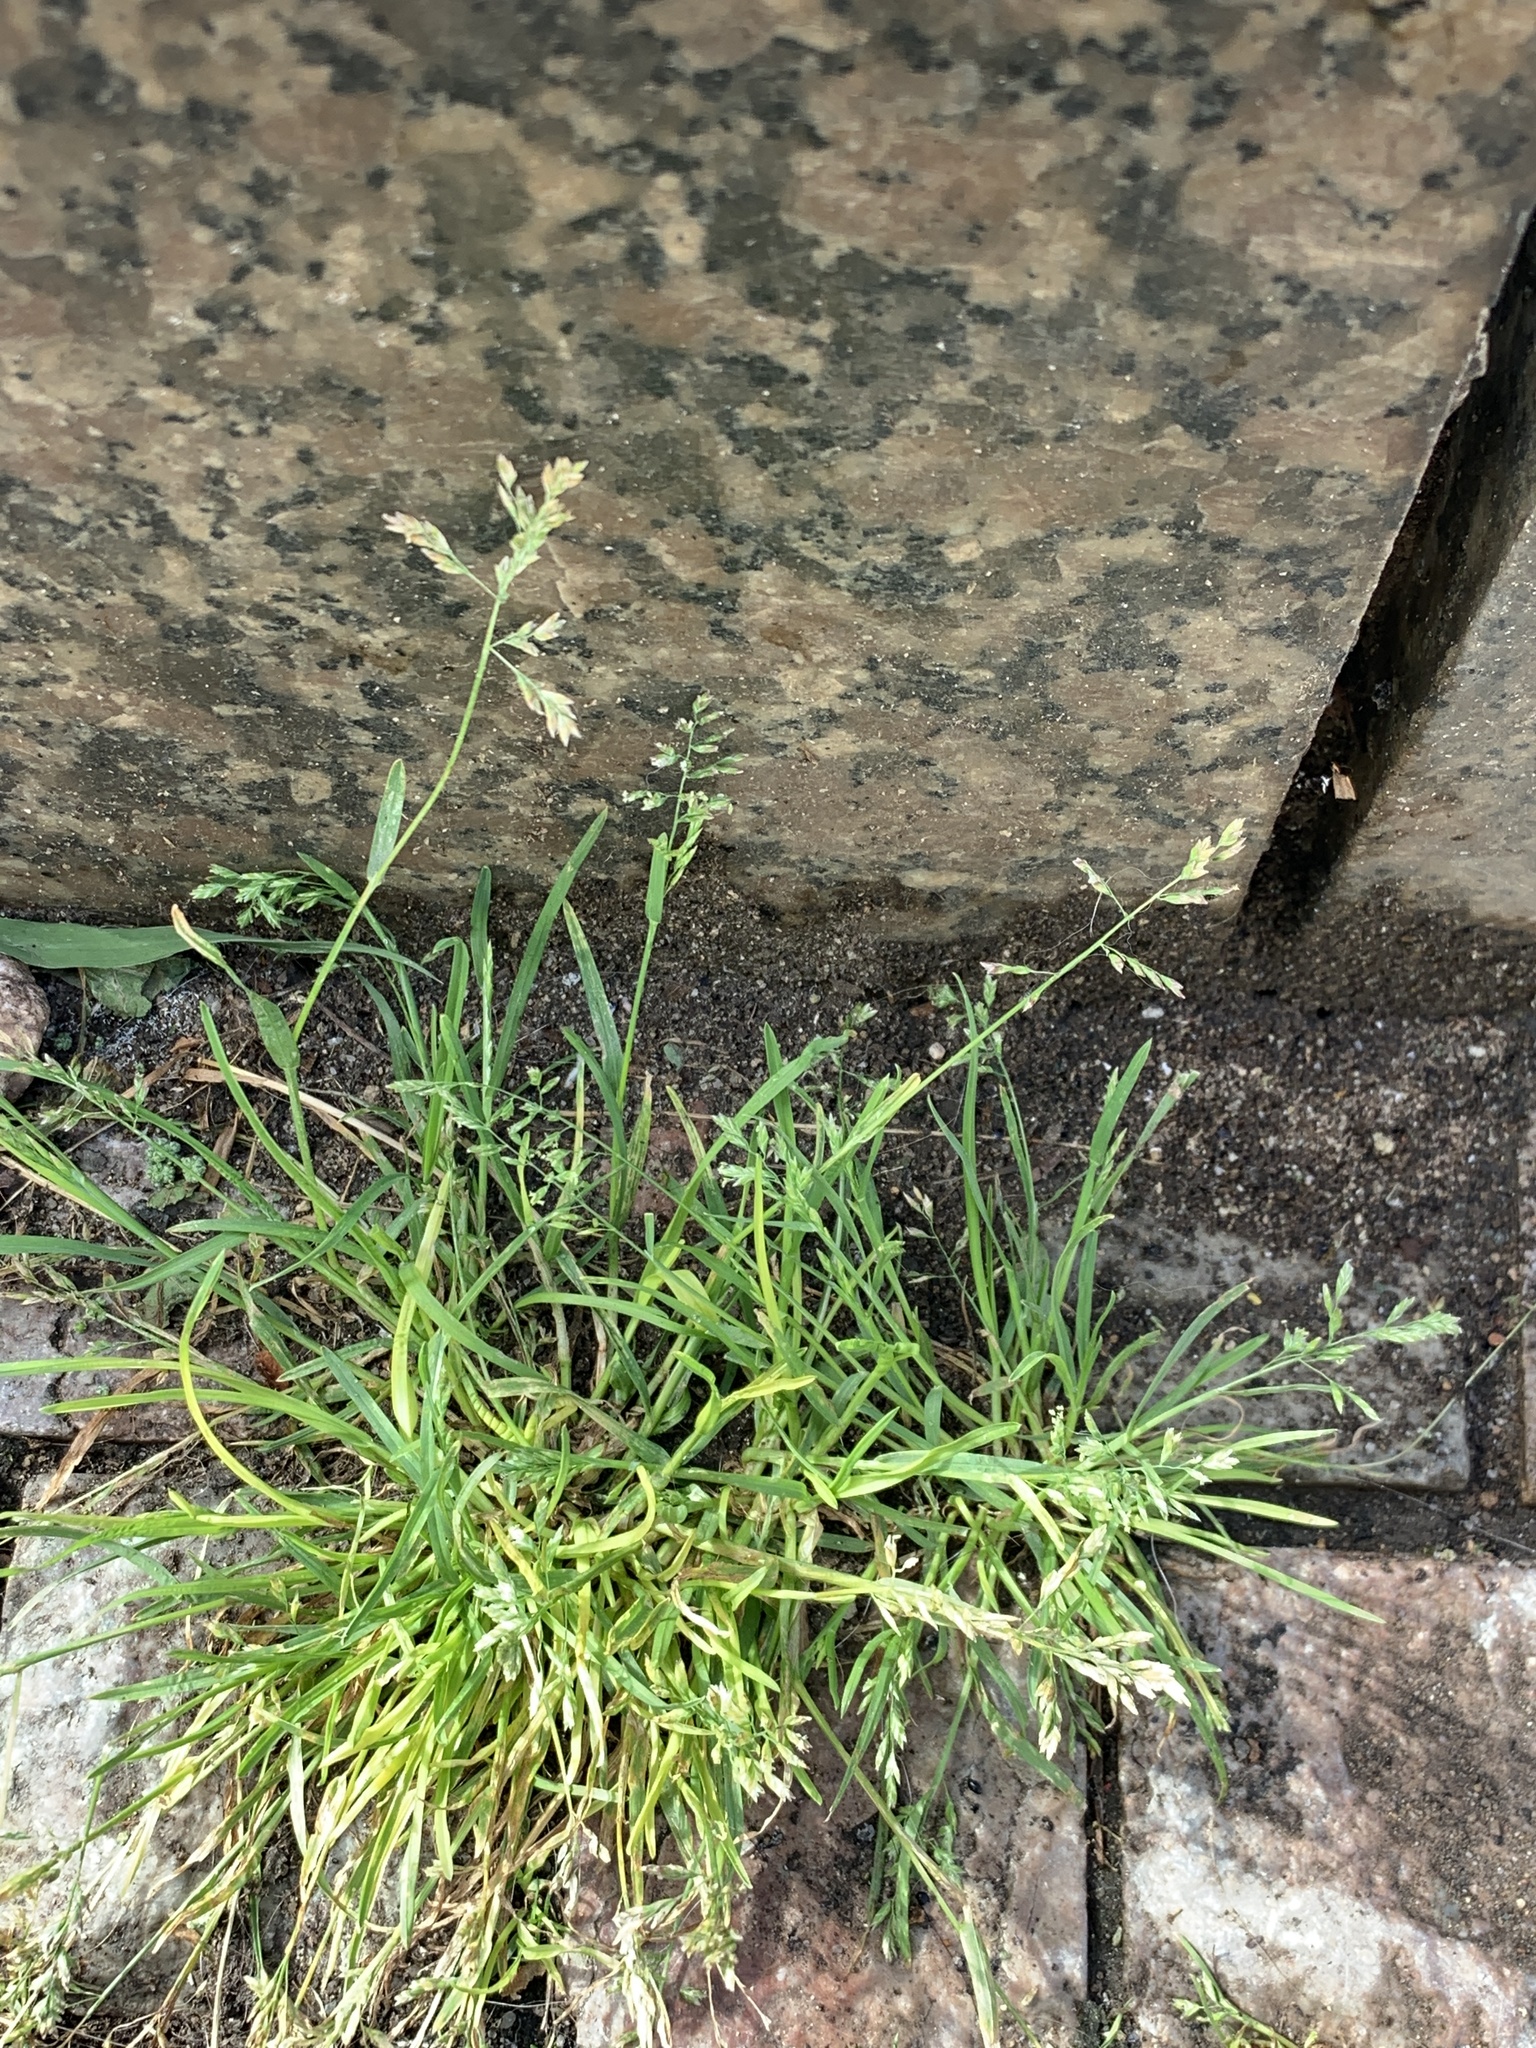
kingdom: Plantae
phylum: Tracheophyta
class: Liliopsida
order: Poales
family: Poaceae
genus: Poa
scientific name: Poa annua
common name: Annual bluegrass
